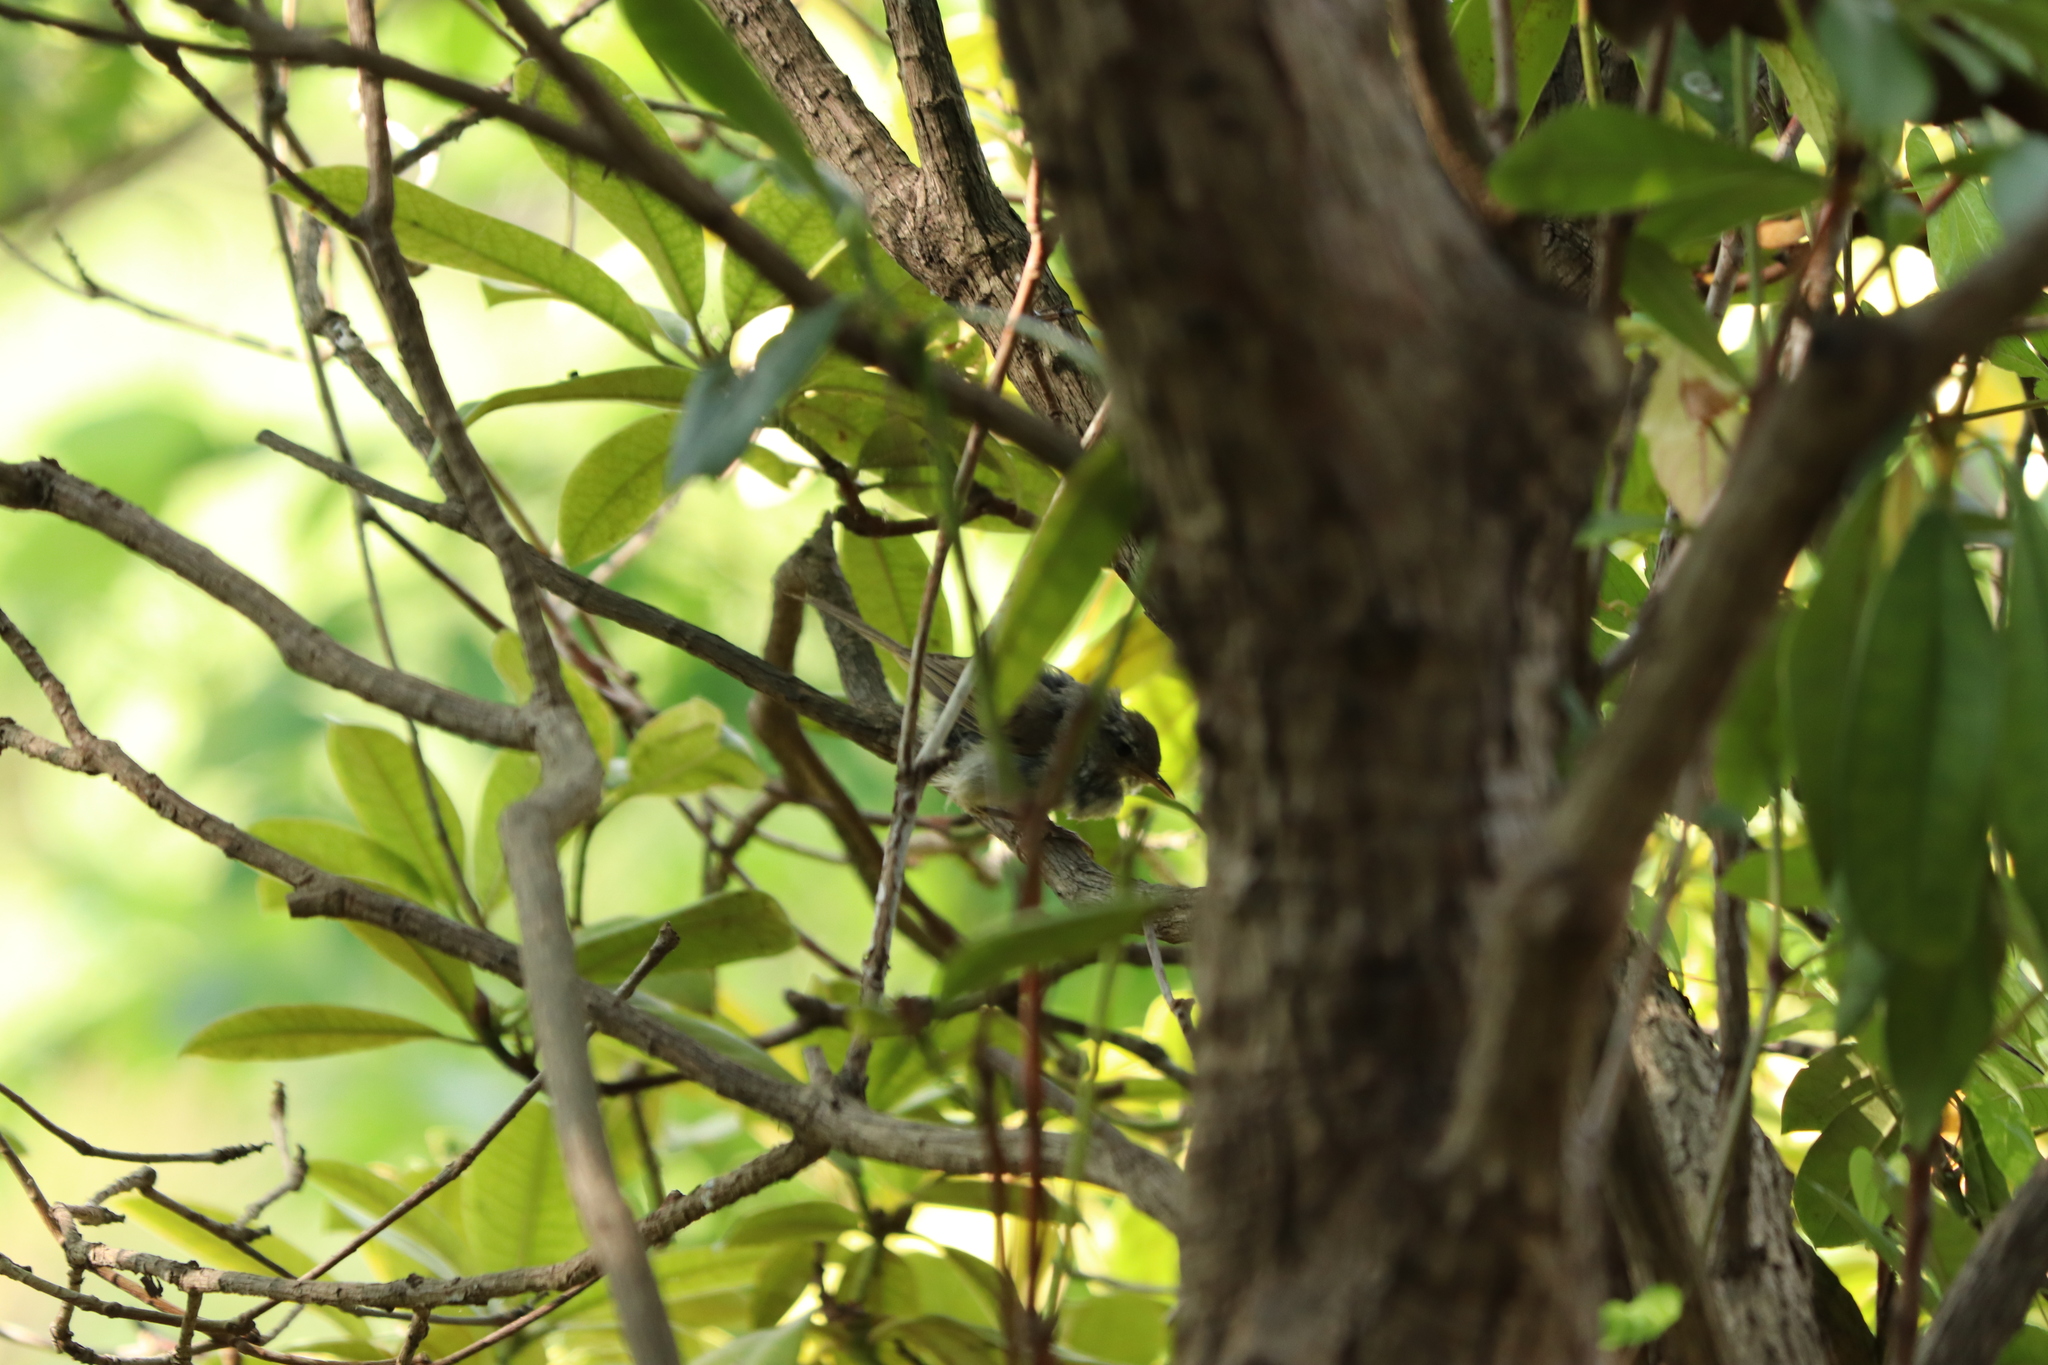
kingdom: Animalia
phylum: Chordata
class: Aves
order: Passeriformes
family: Cettiidae
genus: Horornis
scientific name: Horornis diphone
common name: Japanese bush warbler
